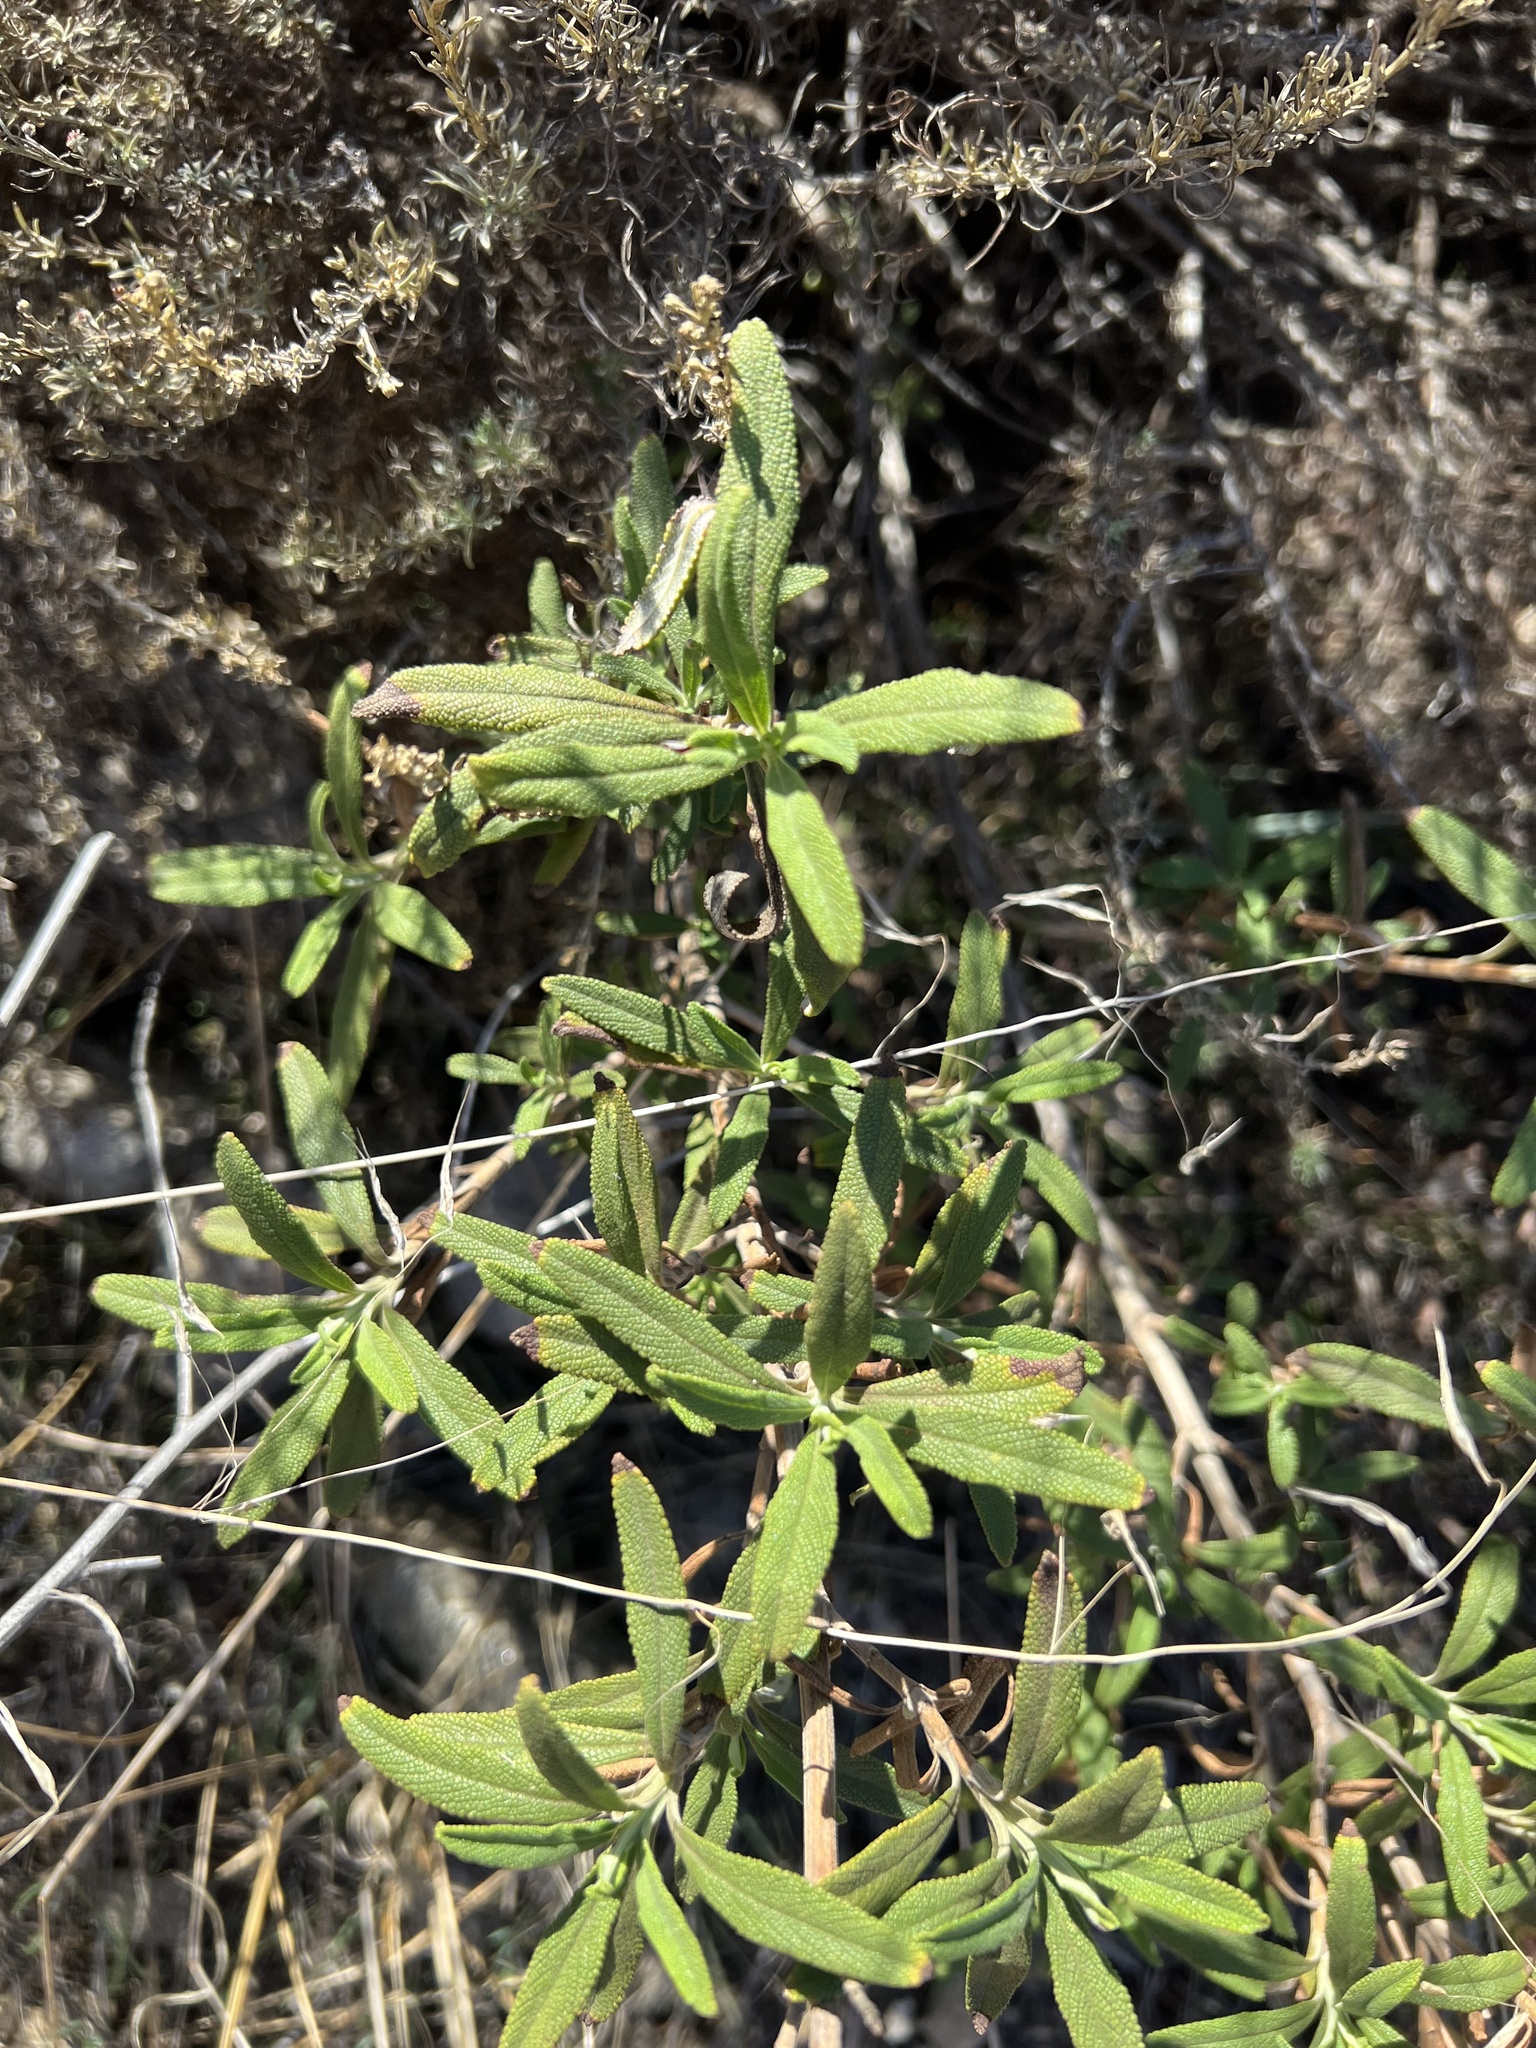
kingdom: Plantae
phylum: Tracheophyta
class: Magnoliopsida
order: Lamiales
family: Lamiaceae
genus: Salvia
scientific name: Salvia mellifera
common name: Black sage
